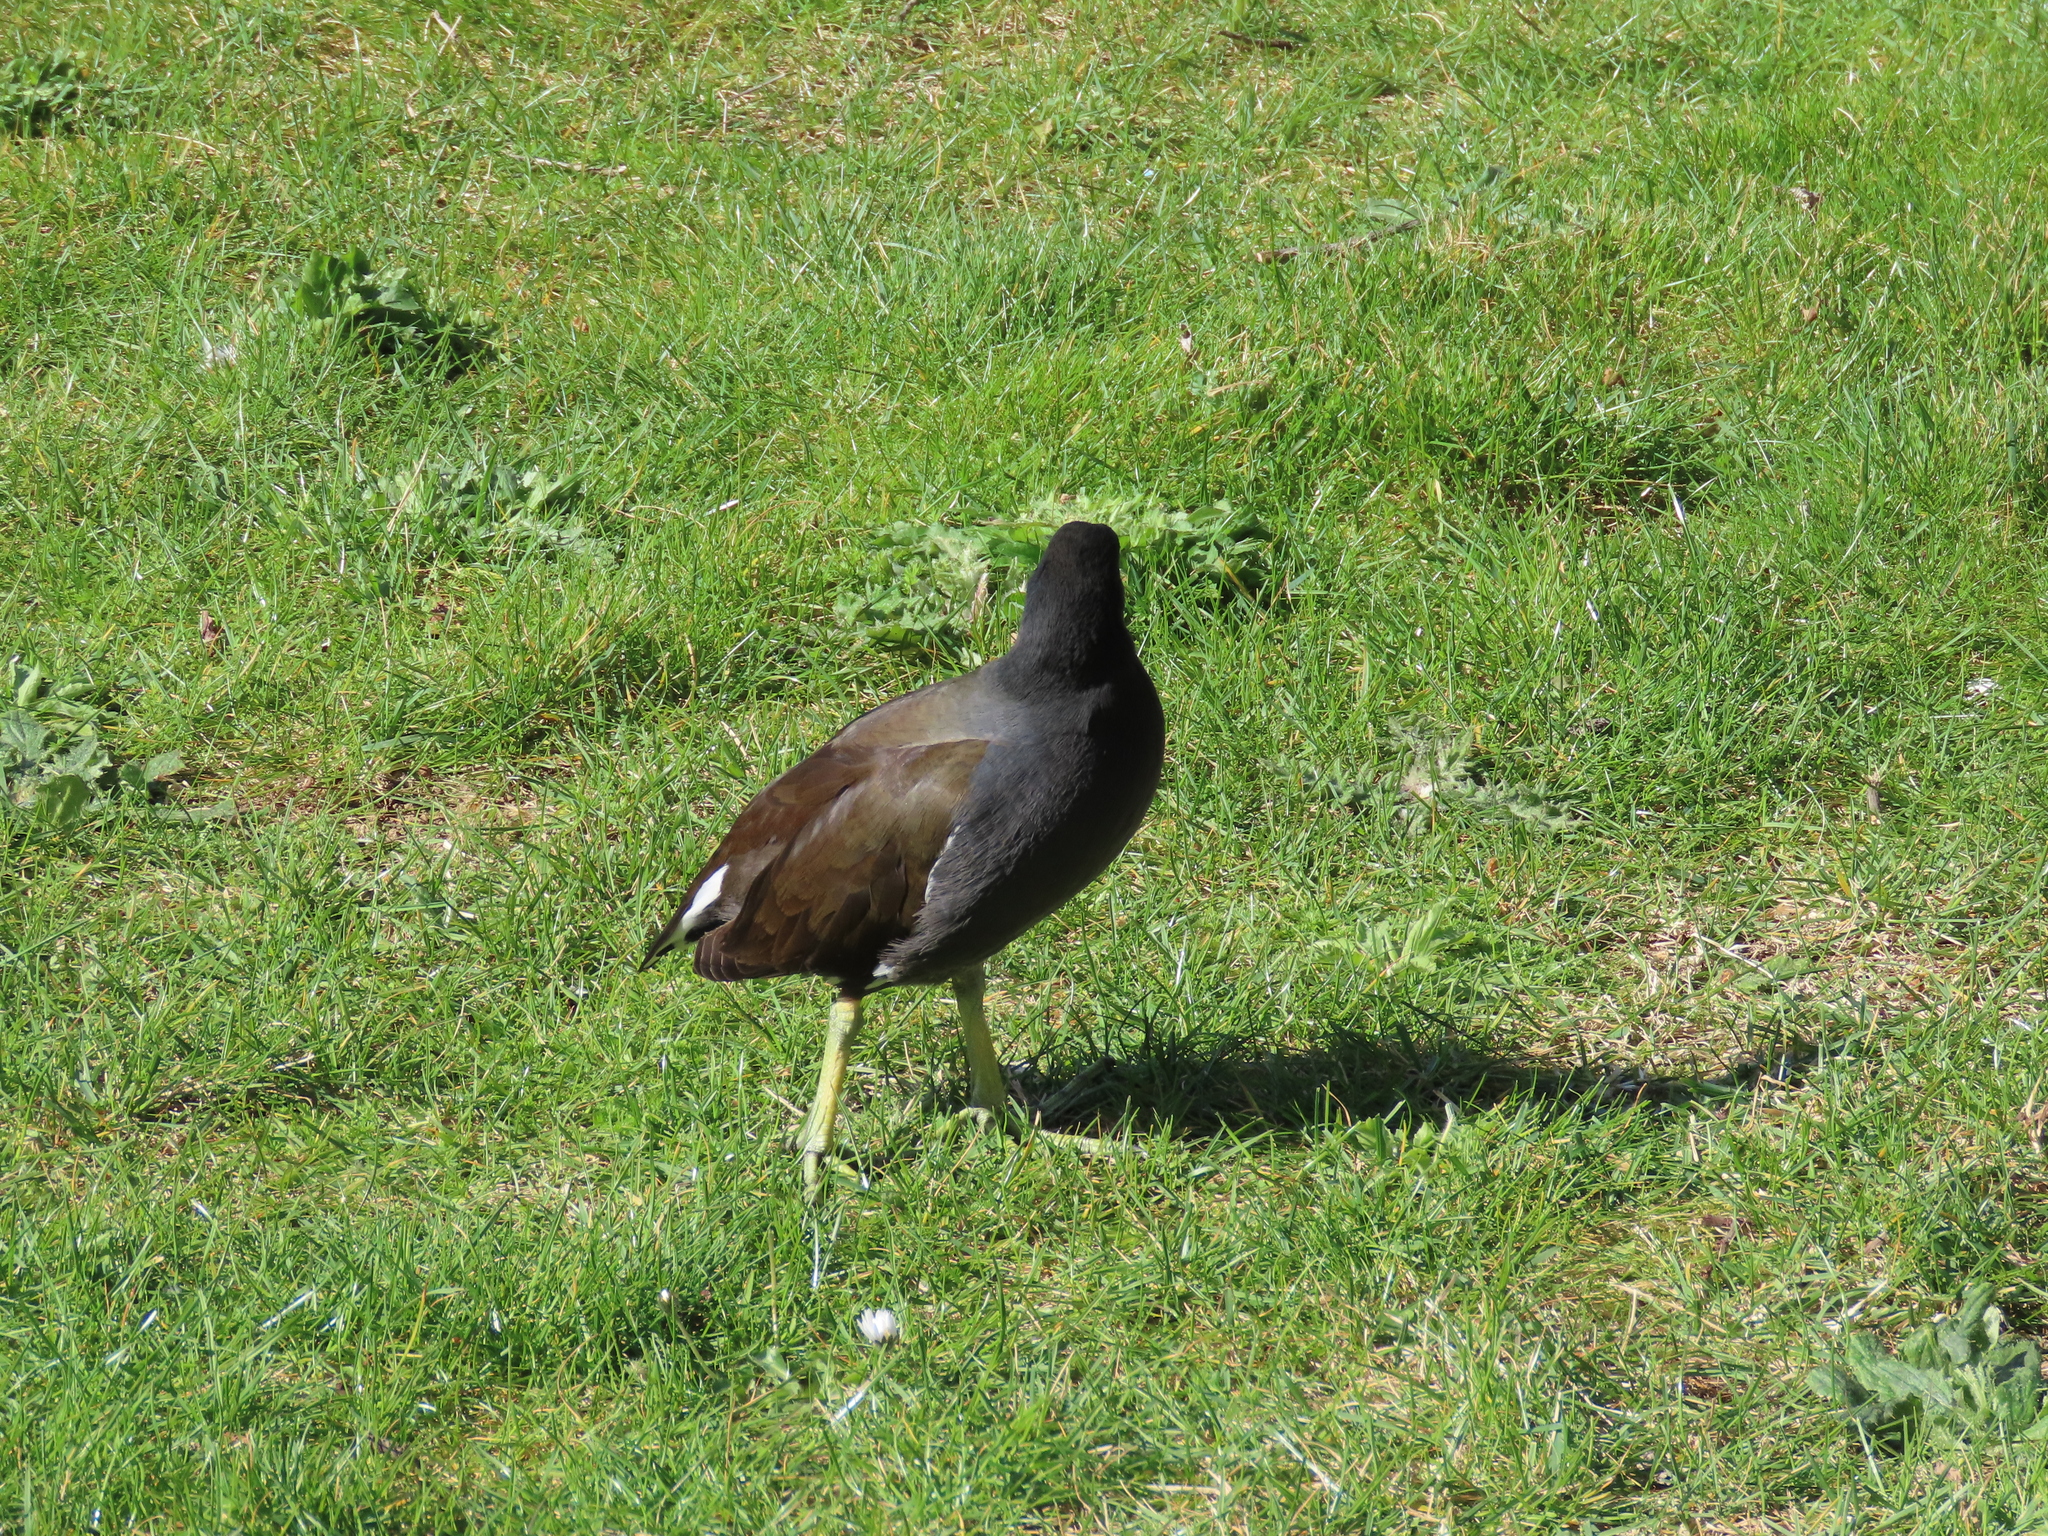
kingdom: Animalia
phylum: Chordata
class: Aves
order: Gruiformes
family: Rallidae
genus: Gallinula
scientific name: Gallinula chloropus
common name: Common moorhen
